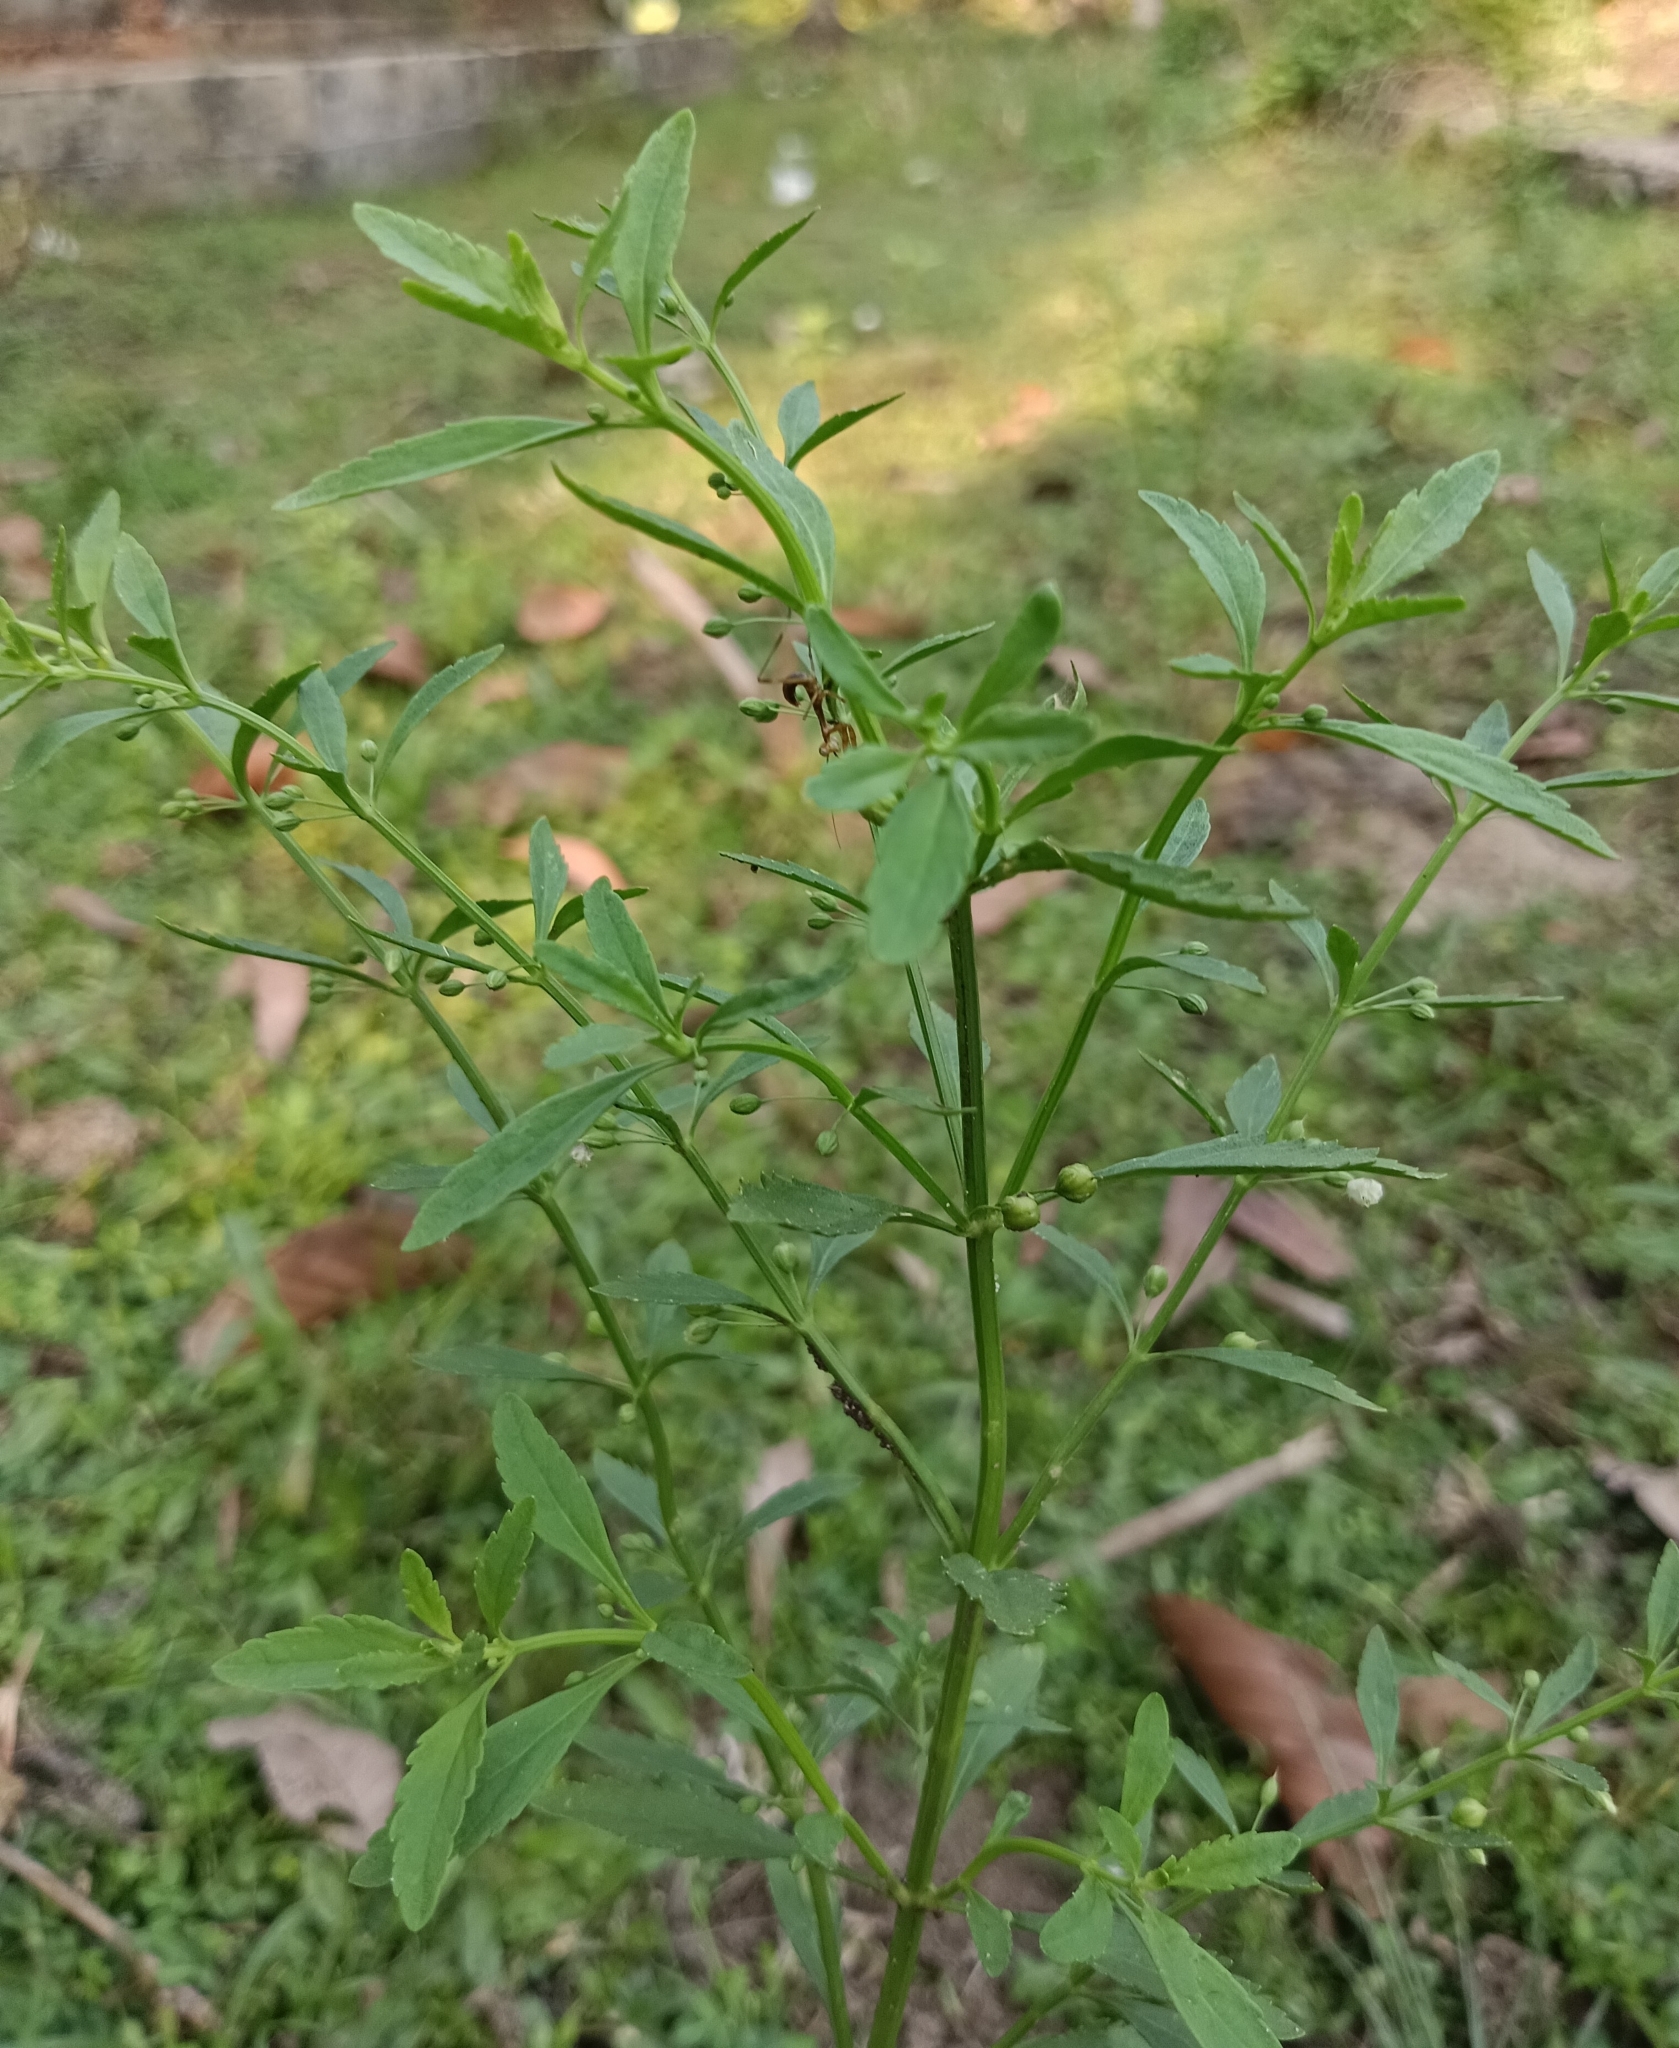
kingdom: Plantae
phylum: Tracheophyta
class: Magnoliopsida
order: Lamiales
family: Plantaginaceae
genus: Scoparia
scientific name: Scoparia dulcis
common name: Scoparia-weed
